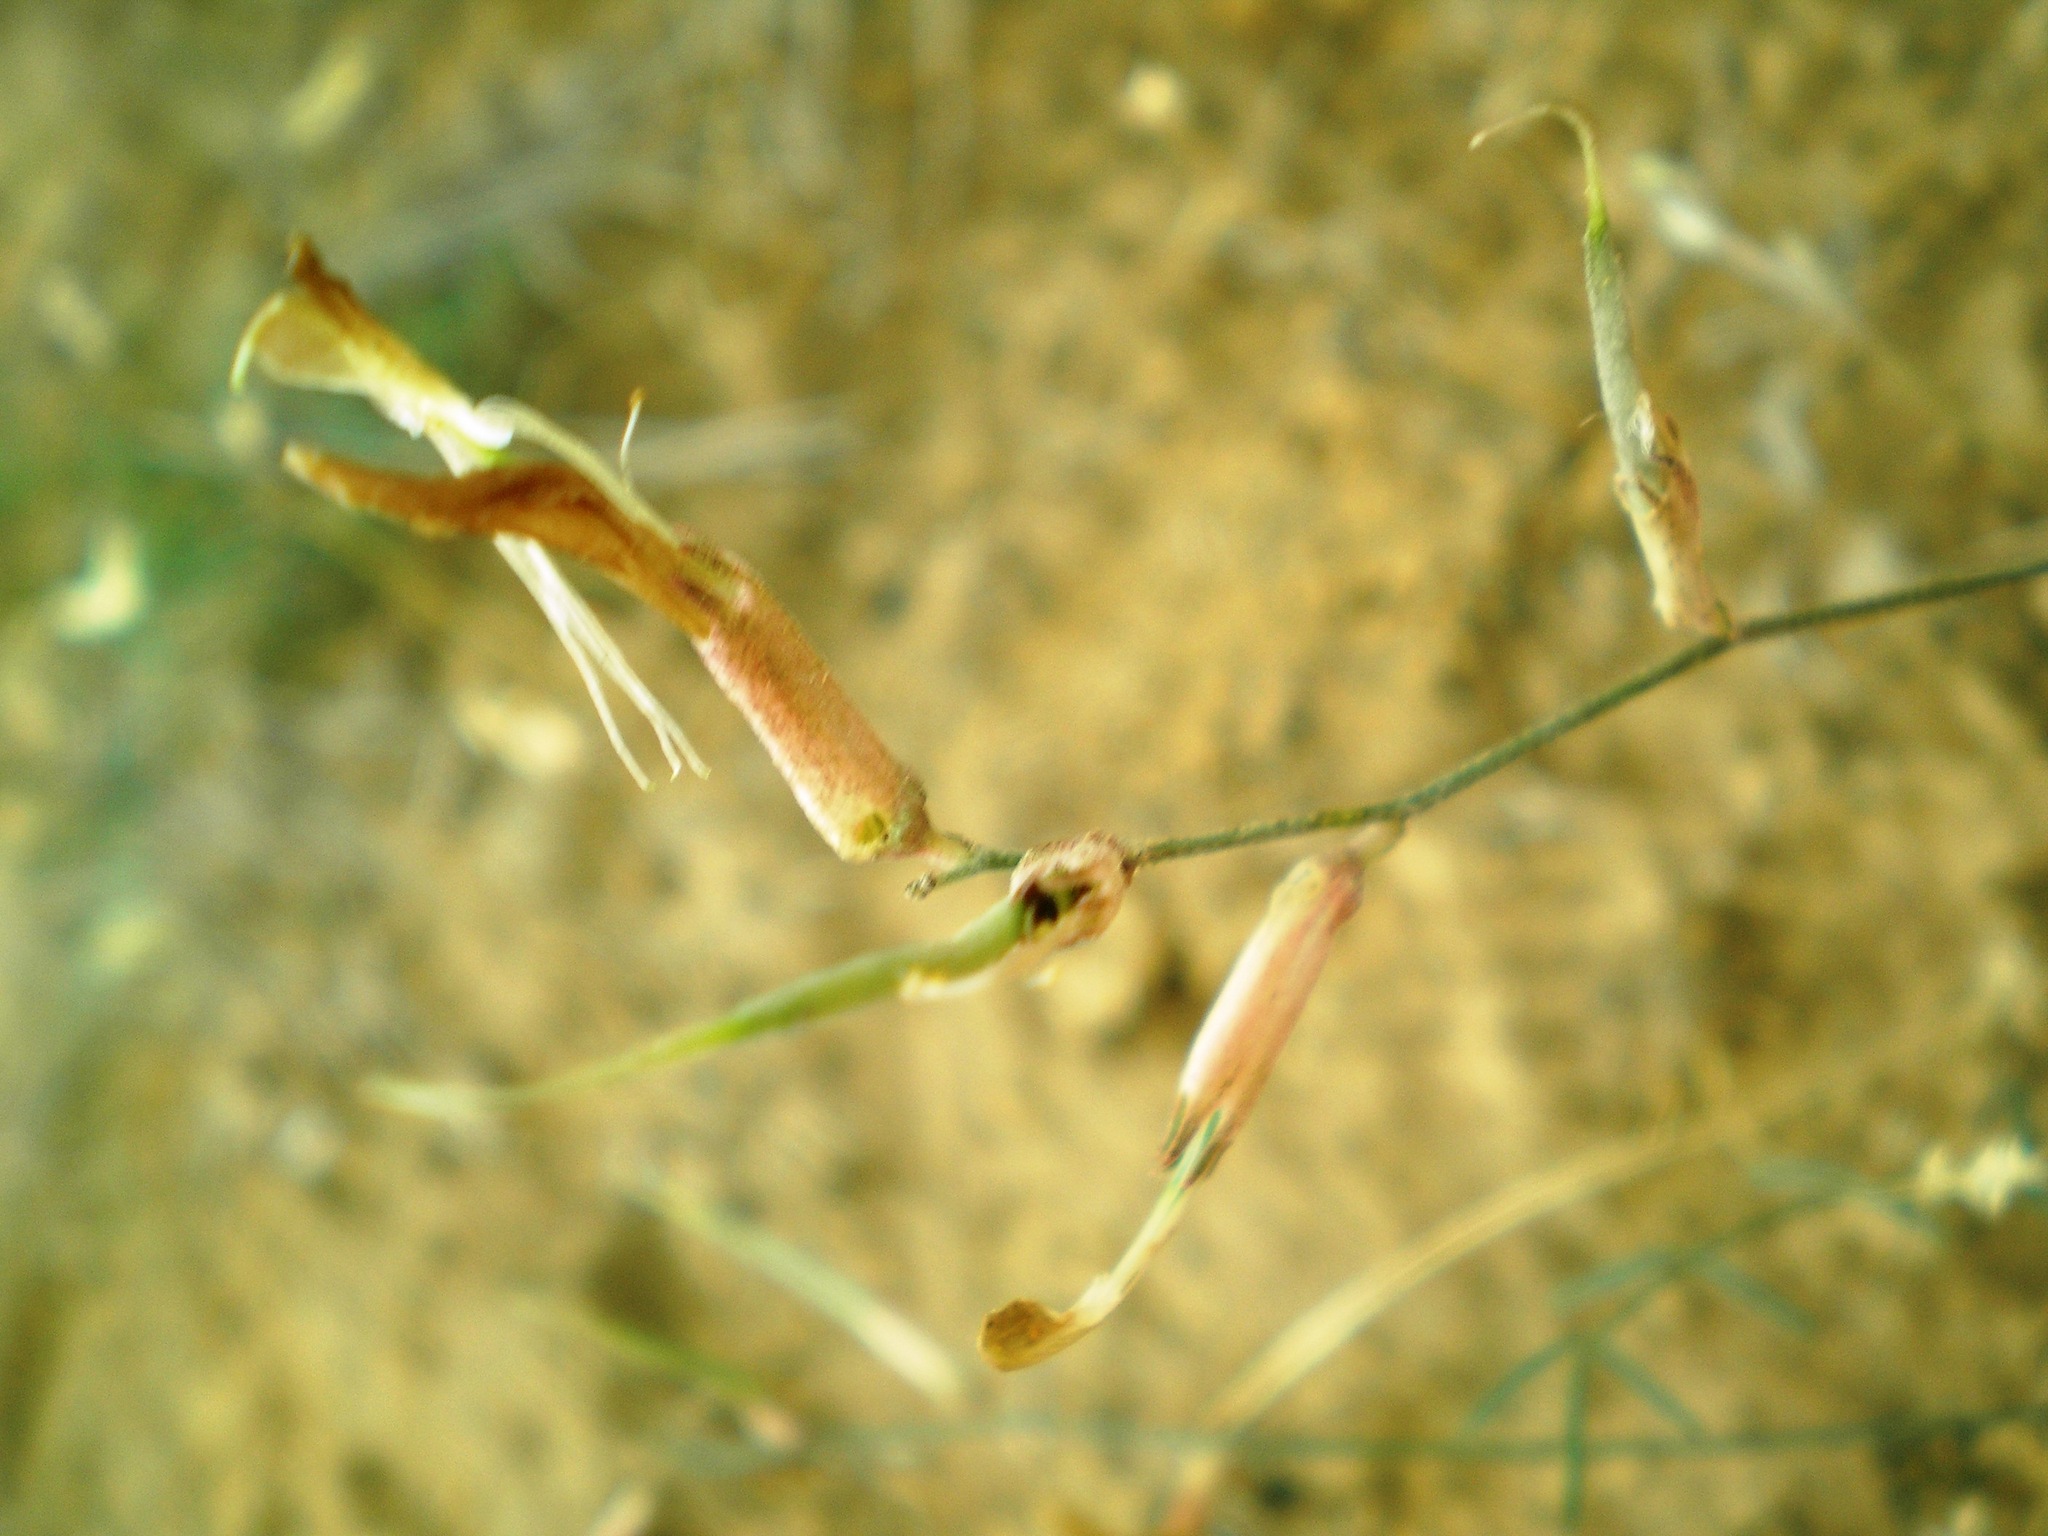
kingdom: Plantae
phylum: Tracheophyta
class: Magnoliopsida
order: Fabales
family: Fabaceae
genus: Astragalus
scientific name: Astragalus pseudotataricus
